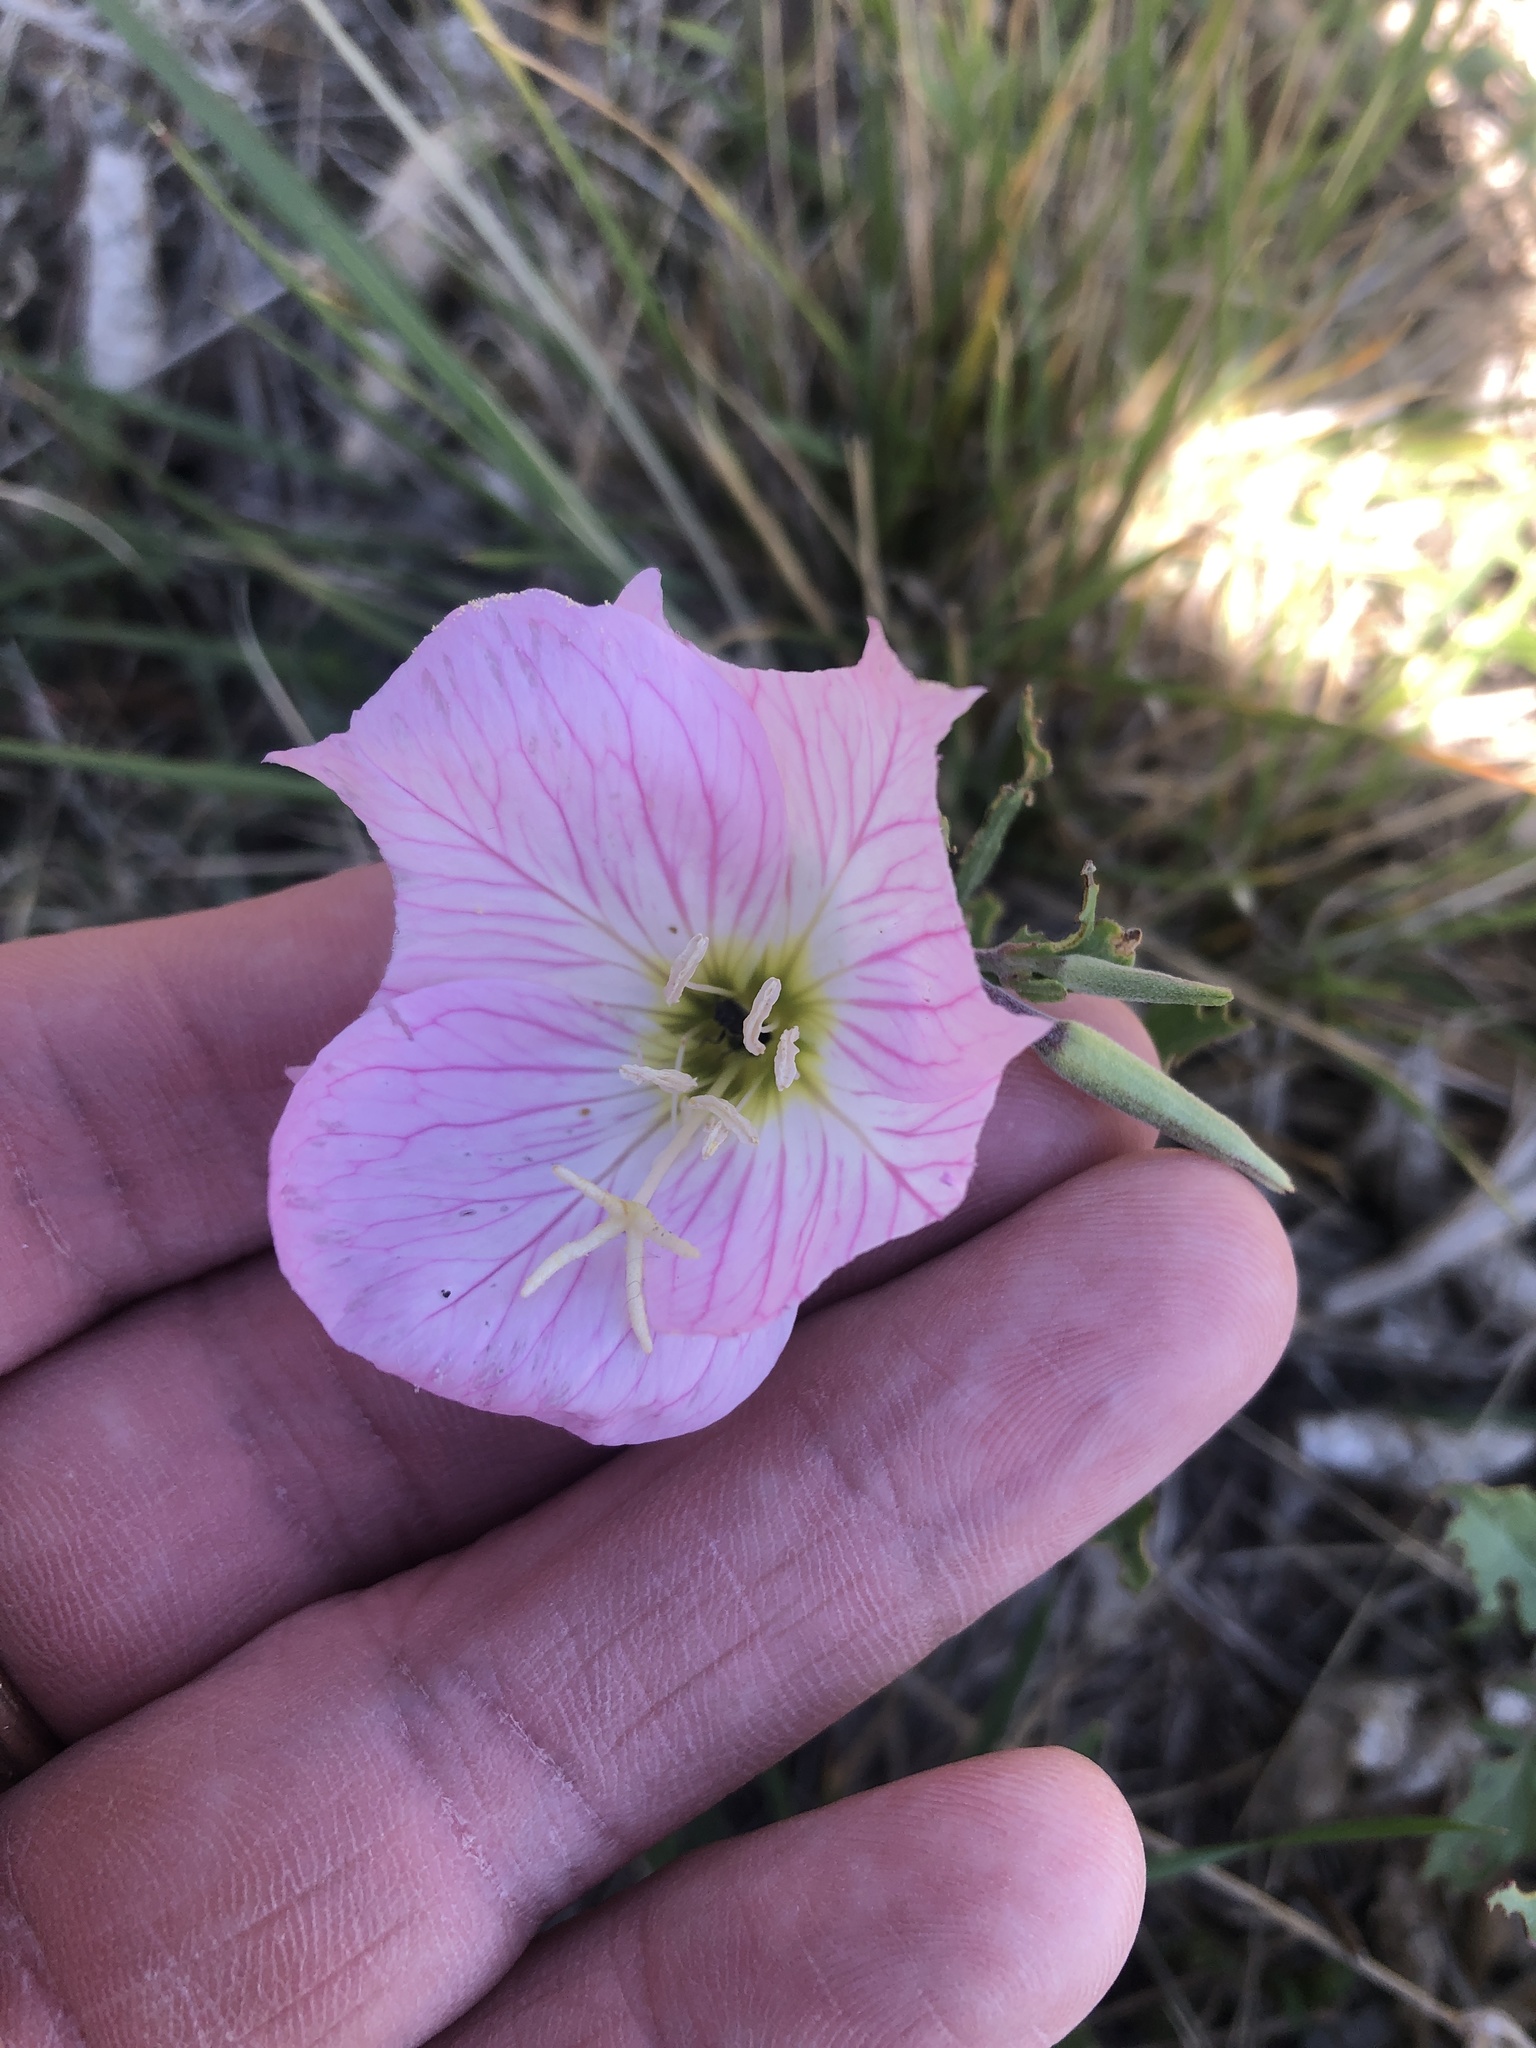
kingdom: Plantae
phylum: Tracheophyta
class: Magnoliopsida
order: Myrtales
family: Onagraceae
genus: Oenothera
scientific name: Oenothera speciosa
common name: White evening-primrose
